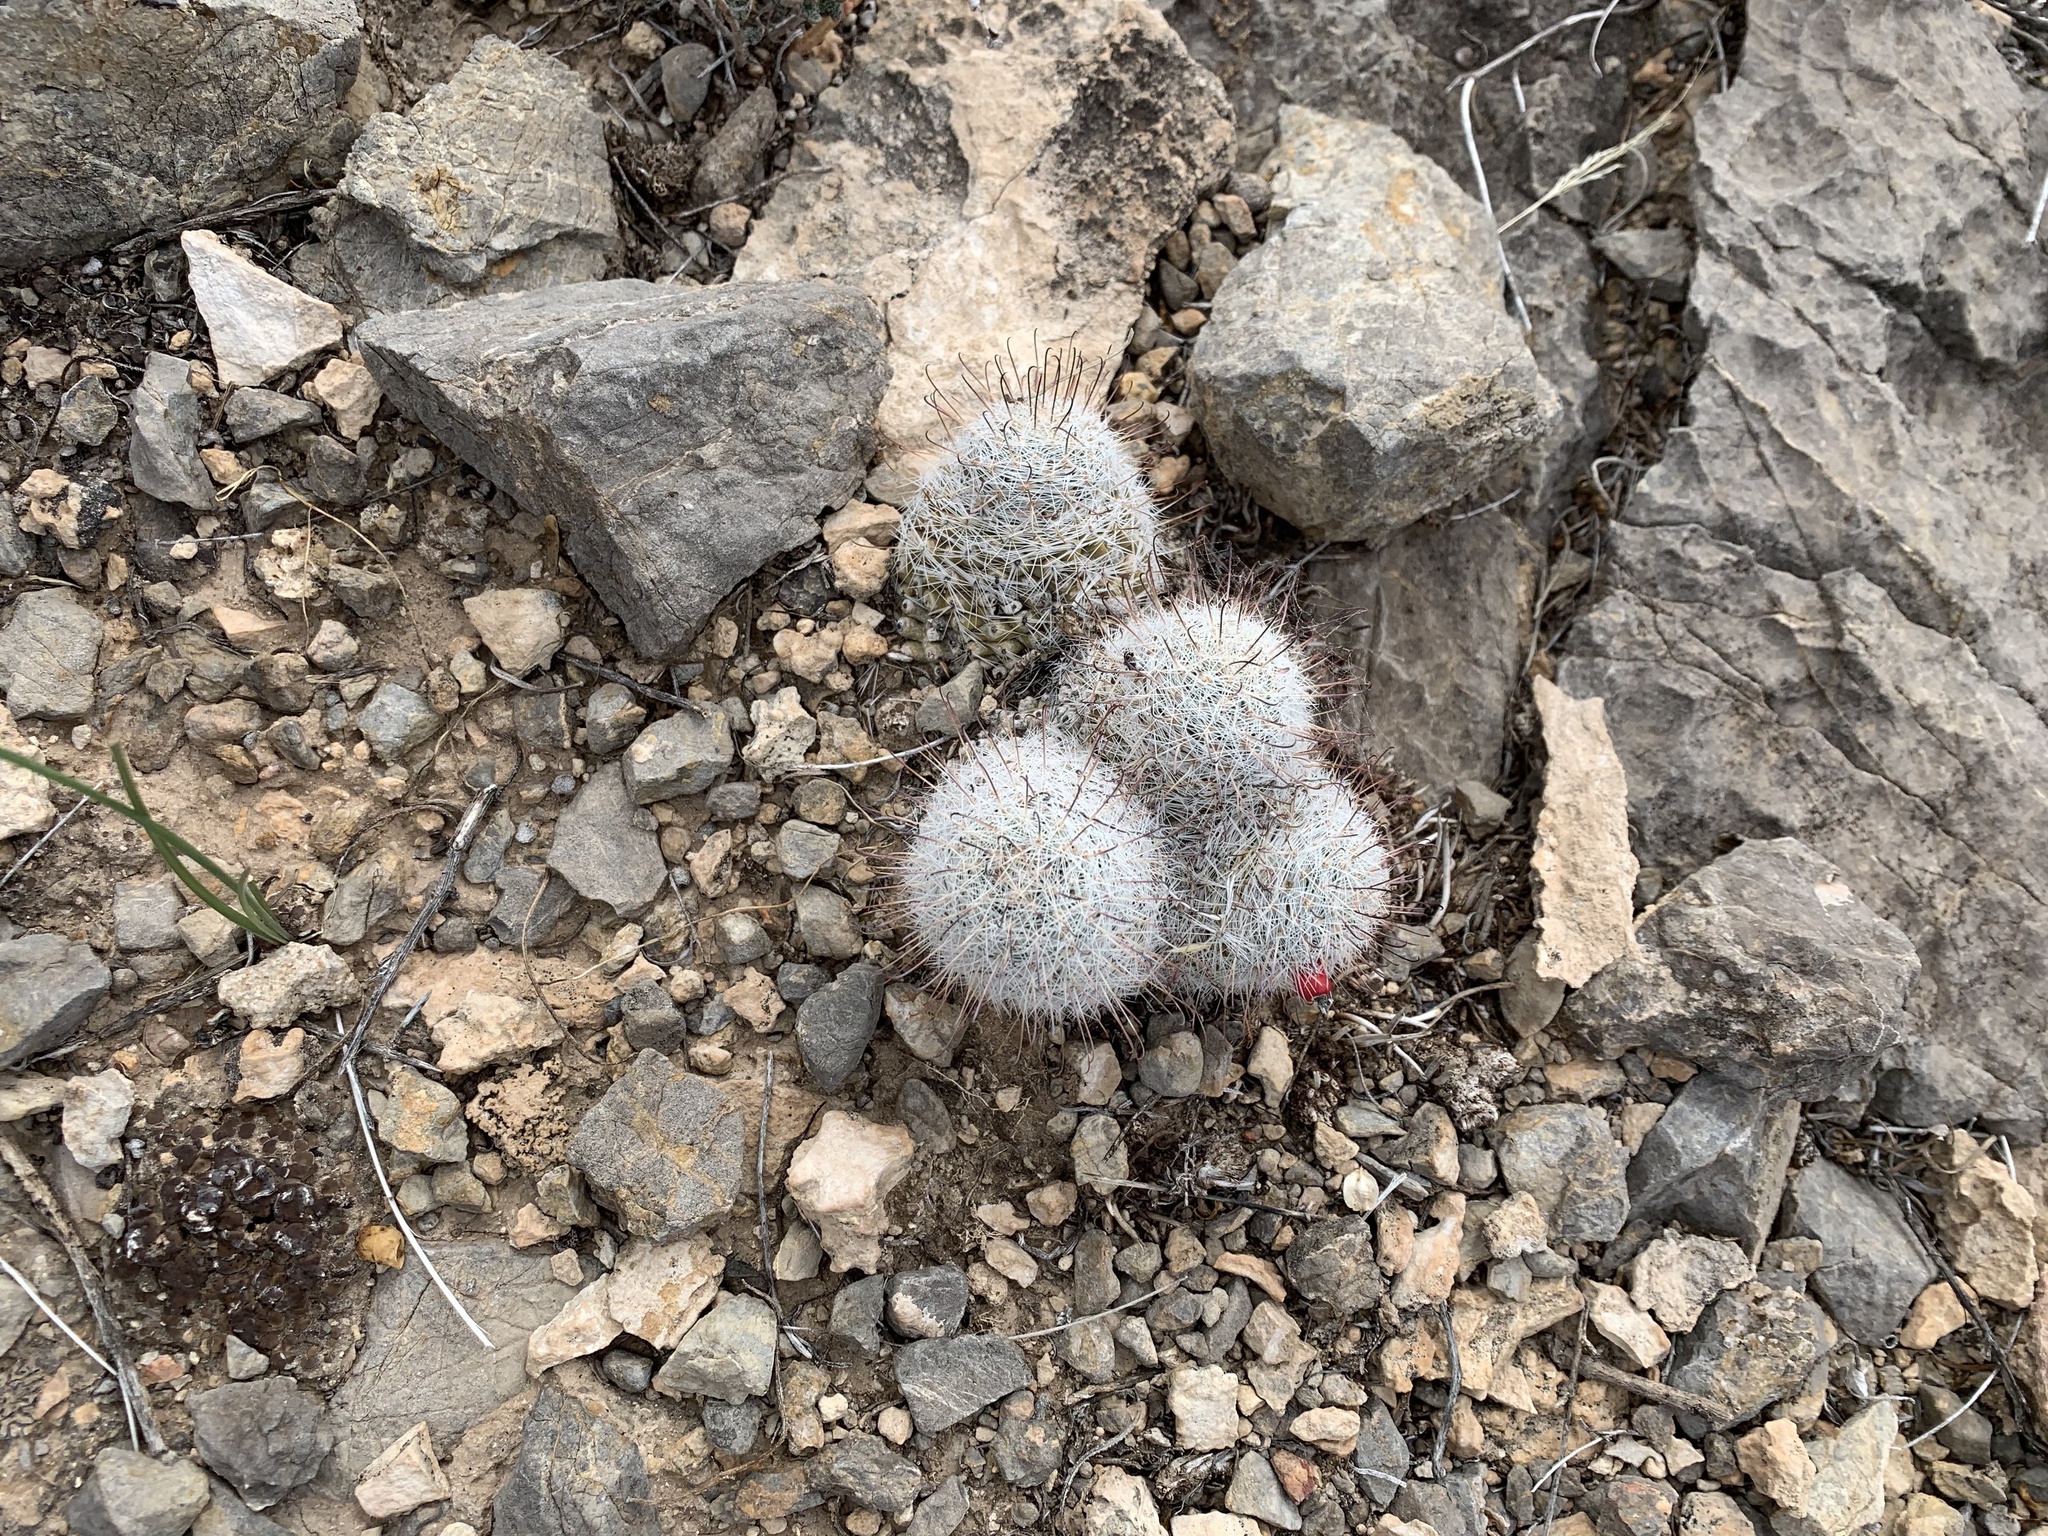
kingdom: Plantae
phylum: Tracheophyta
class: Magnoliopsida
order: Caryophyllales
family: Cactaceae
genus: Cochemiea
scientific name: Cochemiea grahamii
